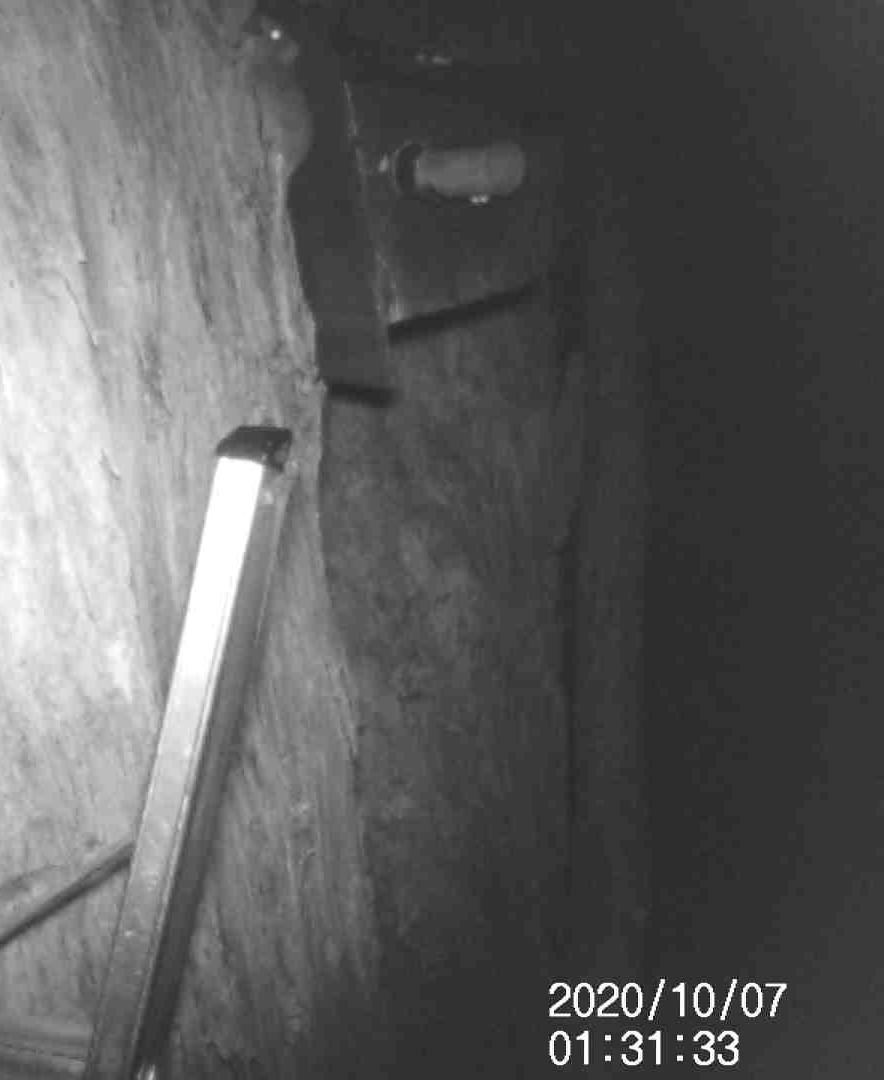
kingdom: Animalia
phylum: Chordata
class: Mammalia
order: Dasyuromorphia
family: Dasyuridae
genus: Antechinus
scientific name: Antechinus agilis
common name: Agile antechinus
